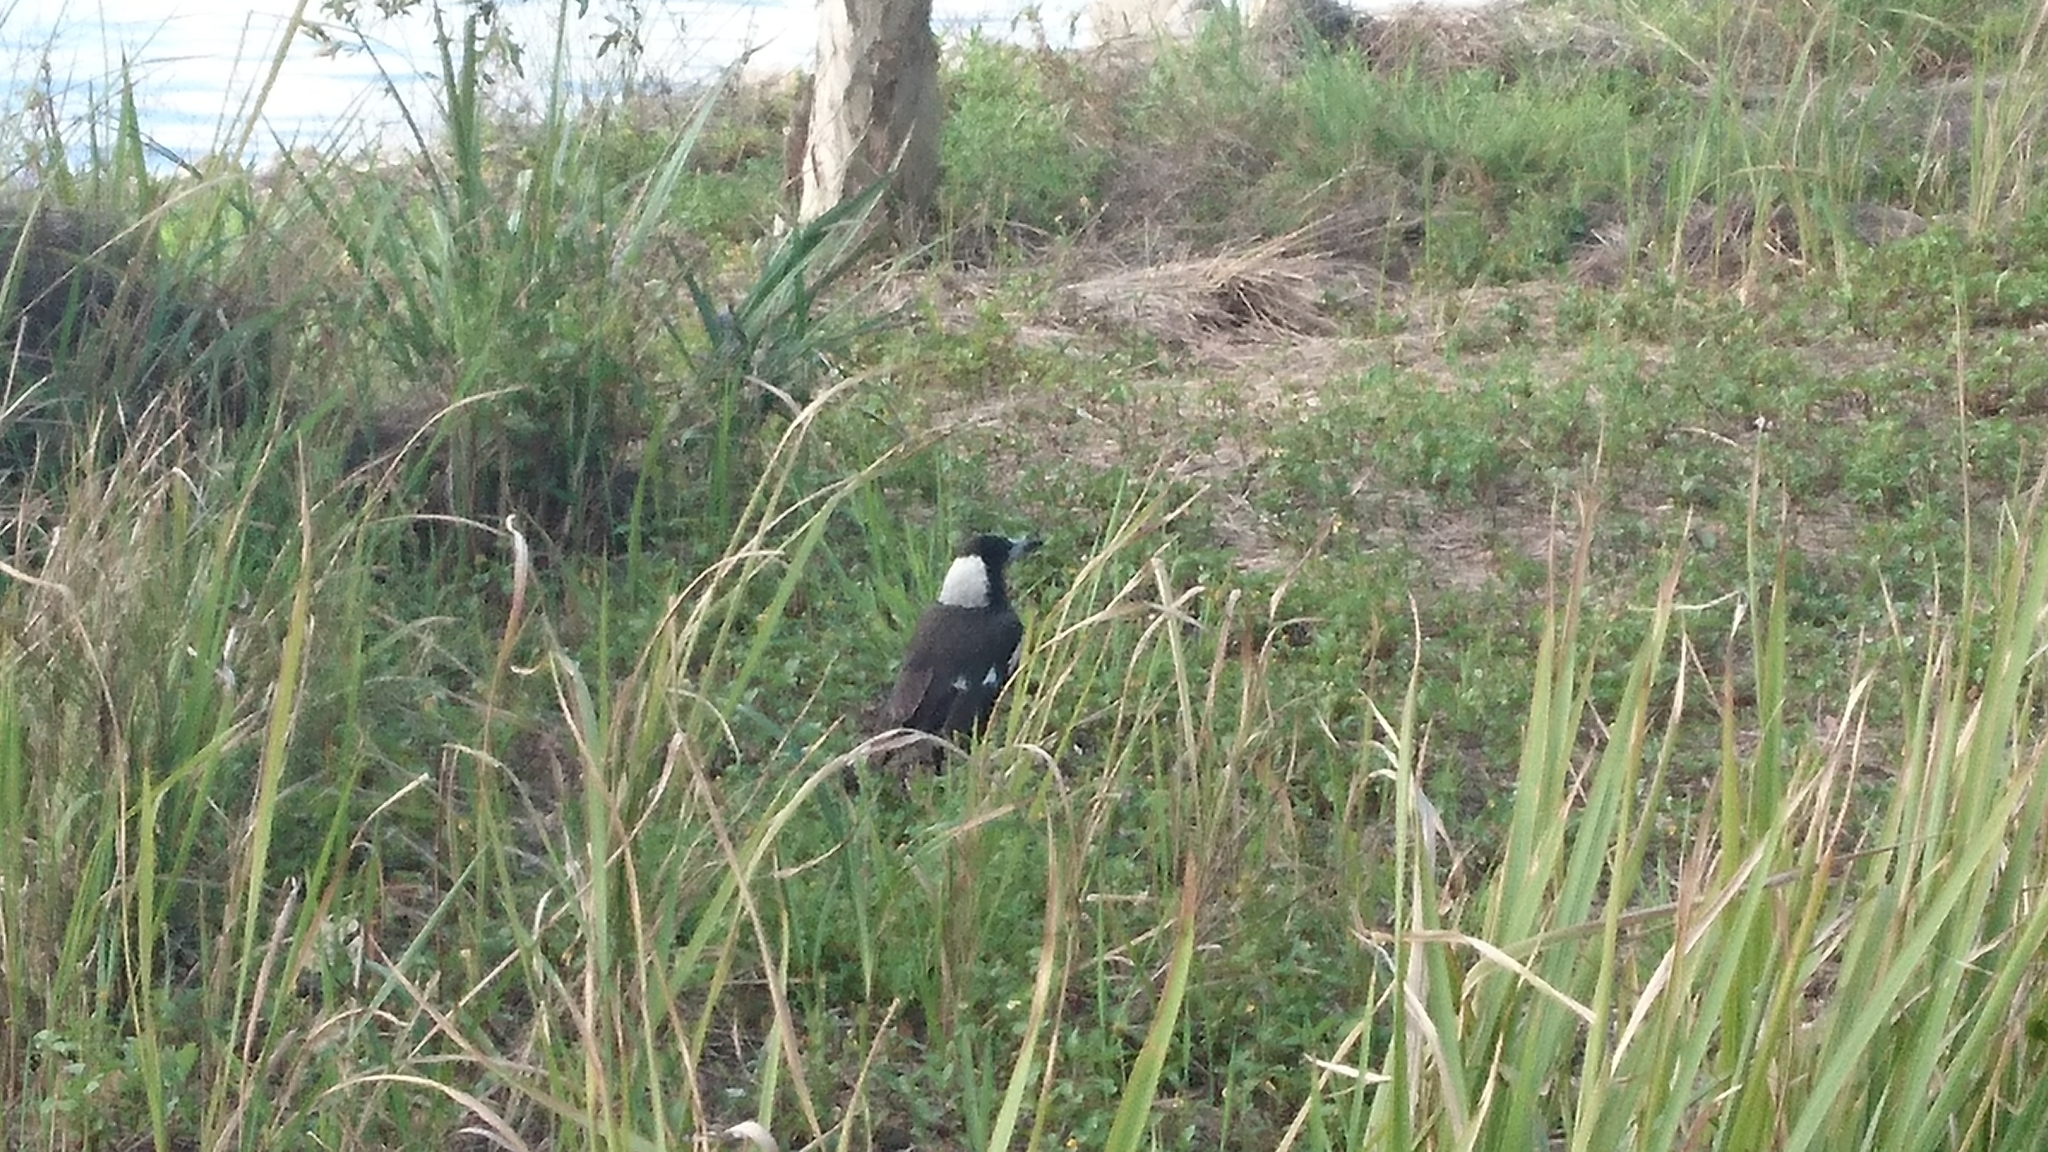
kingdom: Animalia
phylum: Chordata
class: Aves
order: Passeriformes
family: Cracticidae
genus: Gymnorhina
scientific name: Gymnorhina tibicen
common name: Australian magpie
